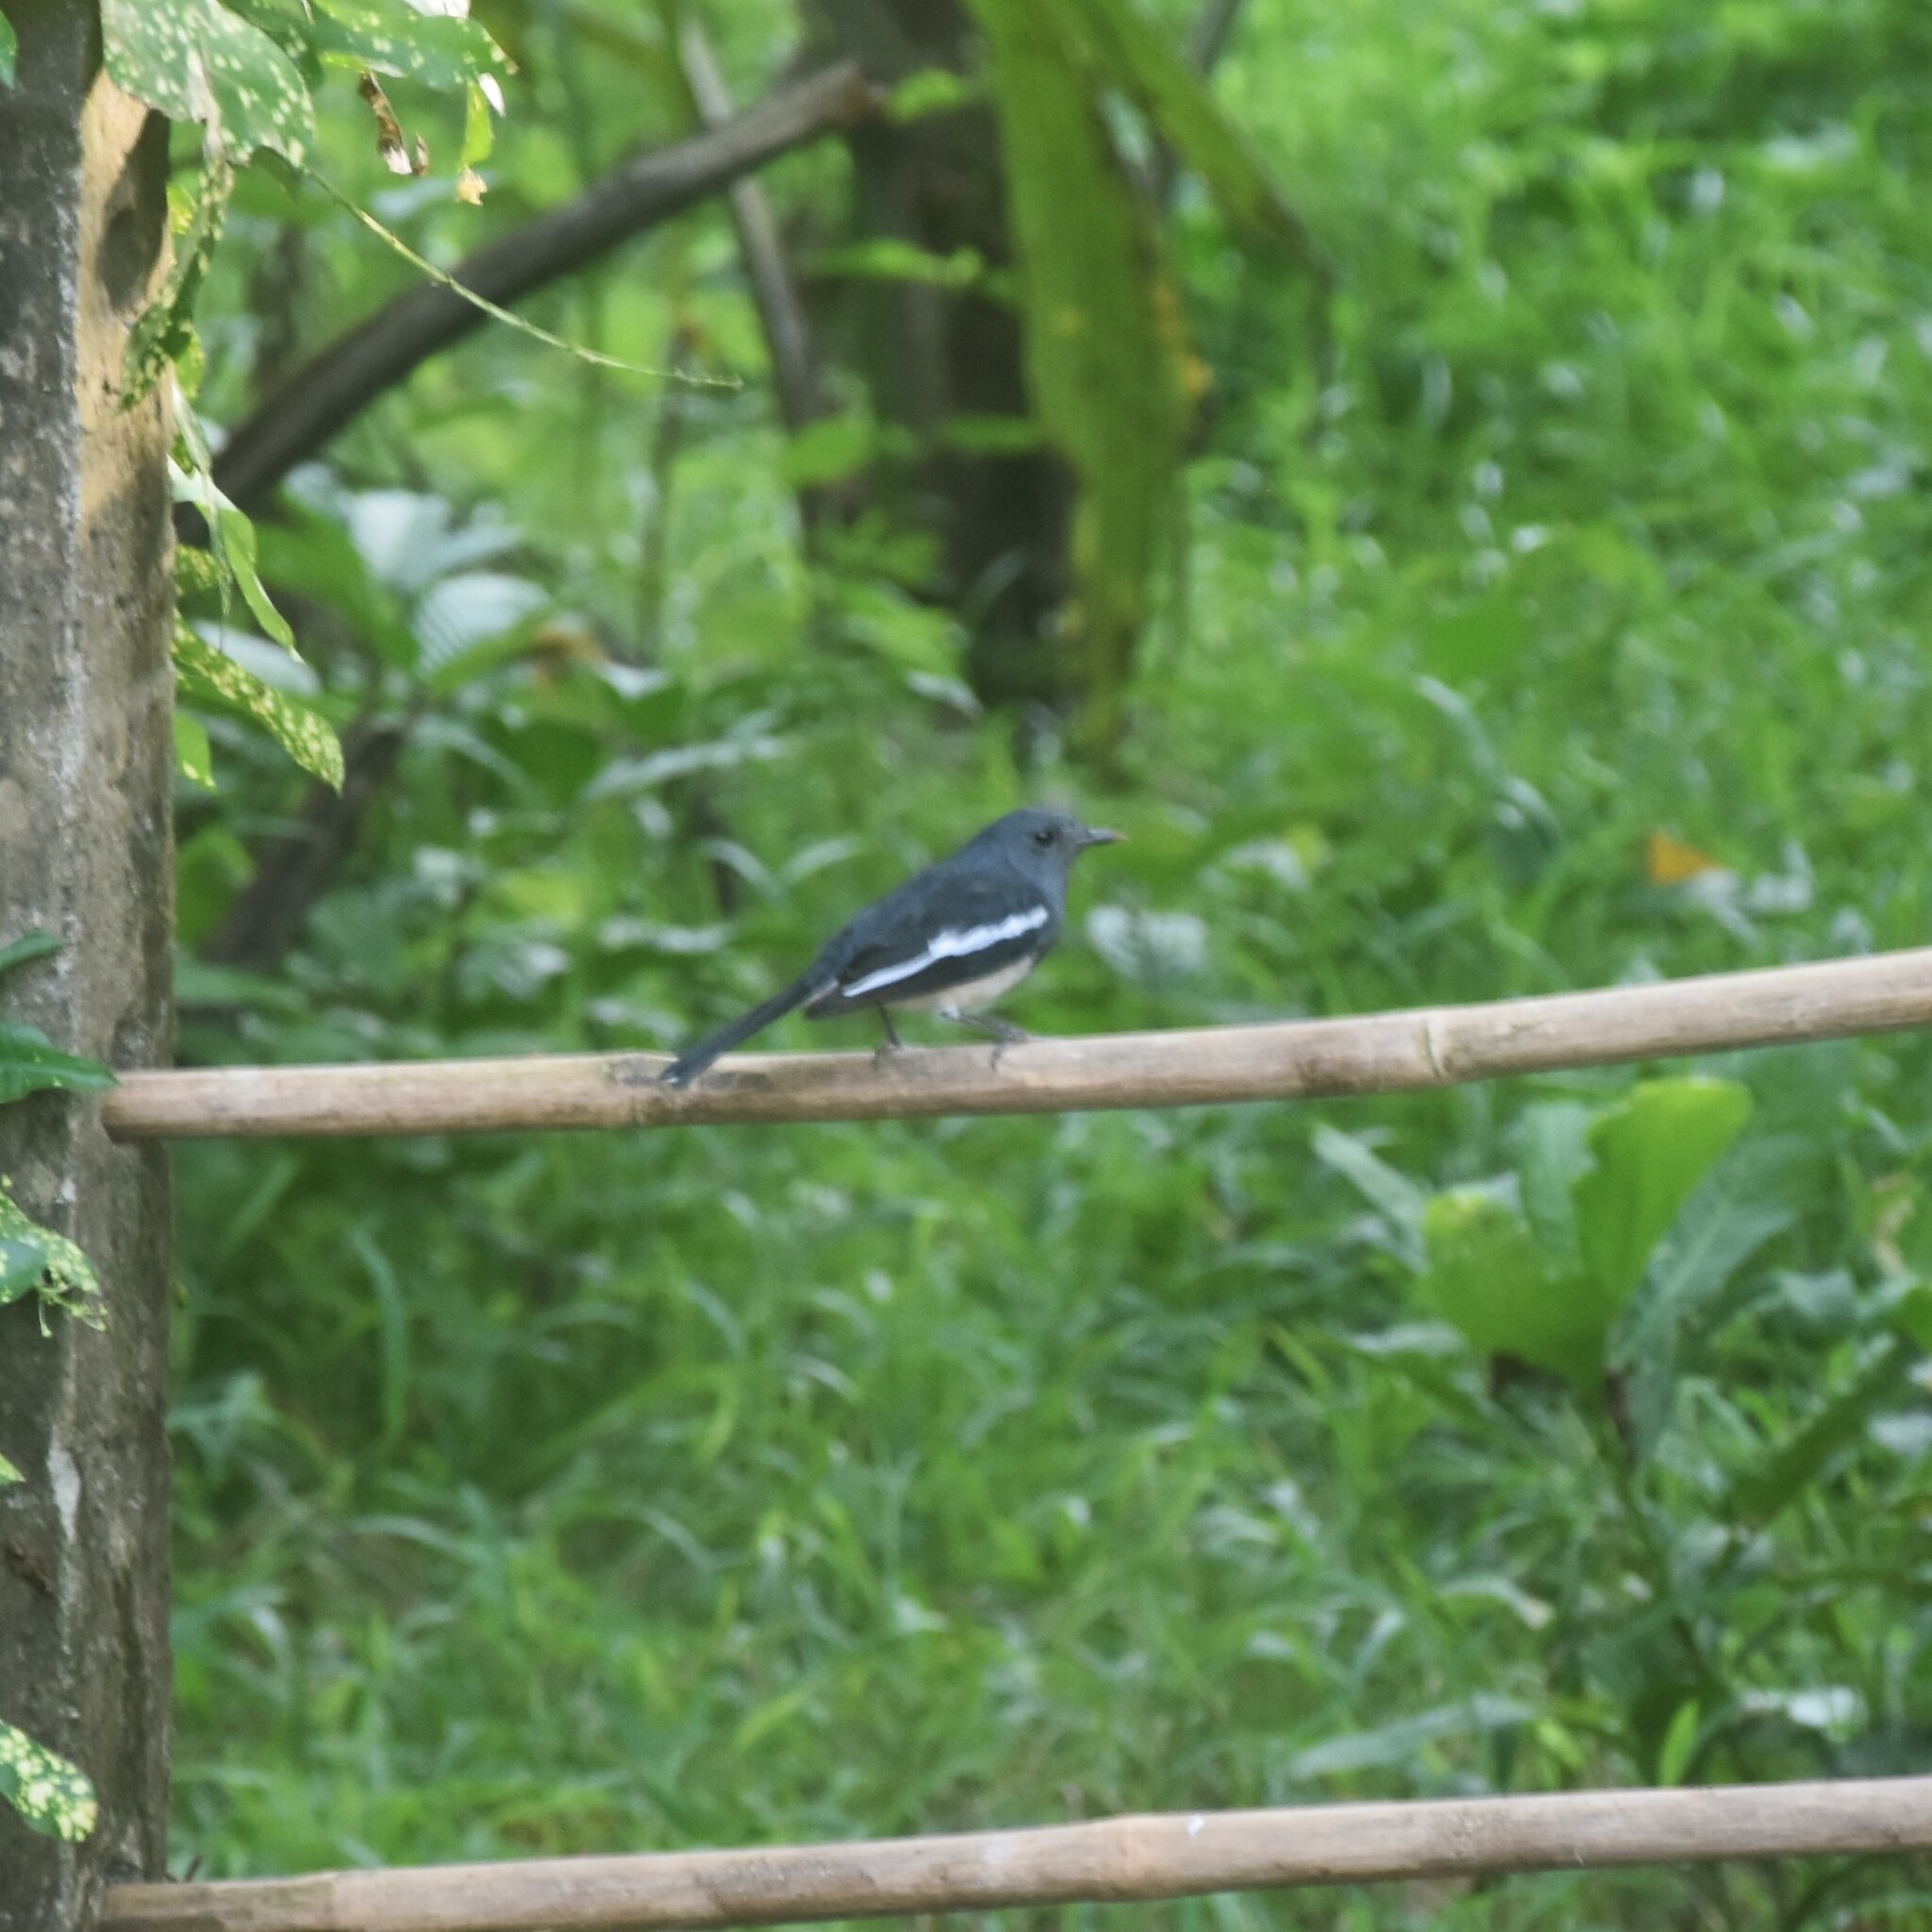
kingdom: Animalia
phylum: Chordata
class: Aves
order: Passeriformes
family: Muscicapidae
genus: Copsychus
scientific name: Copsychus saularis
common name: Oriental magpie-robin
